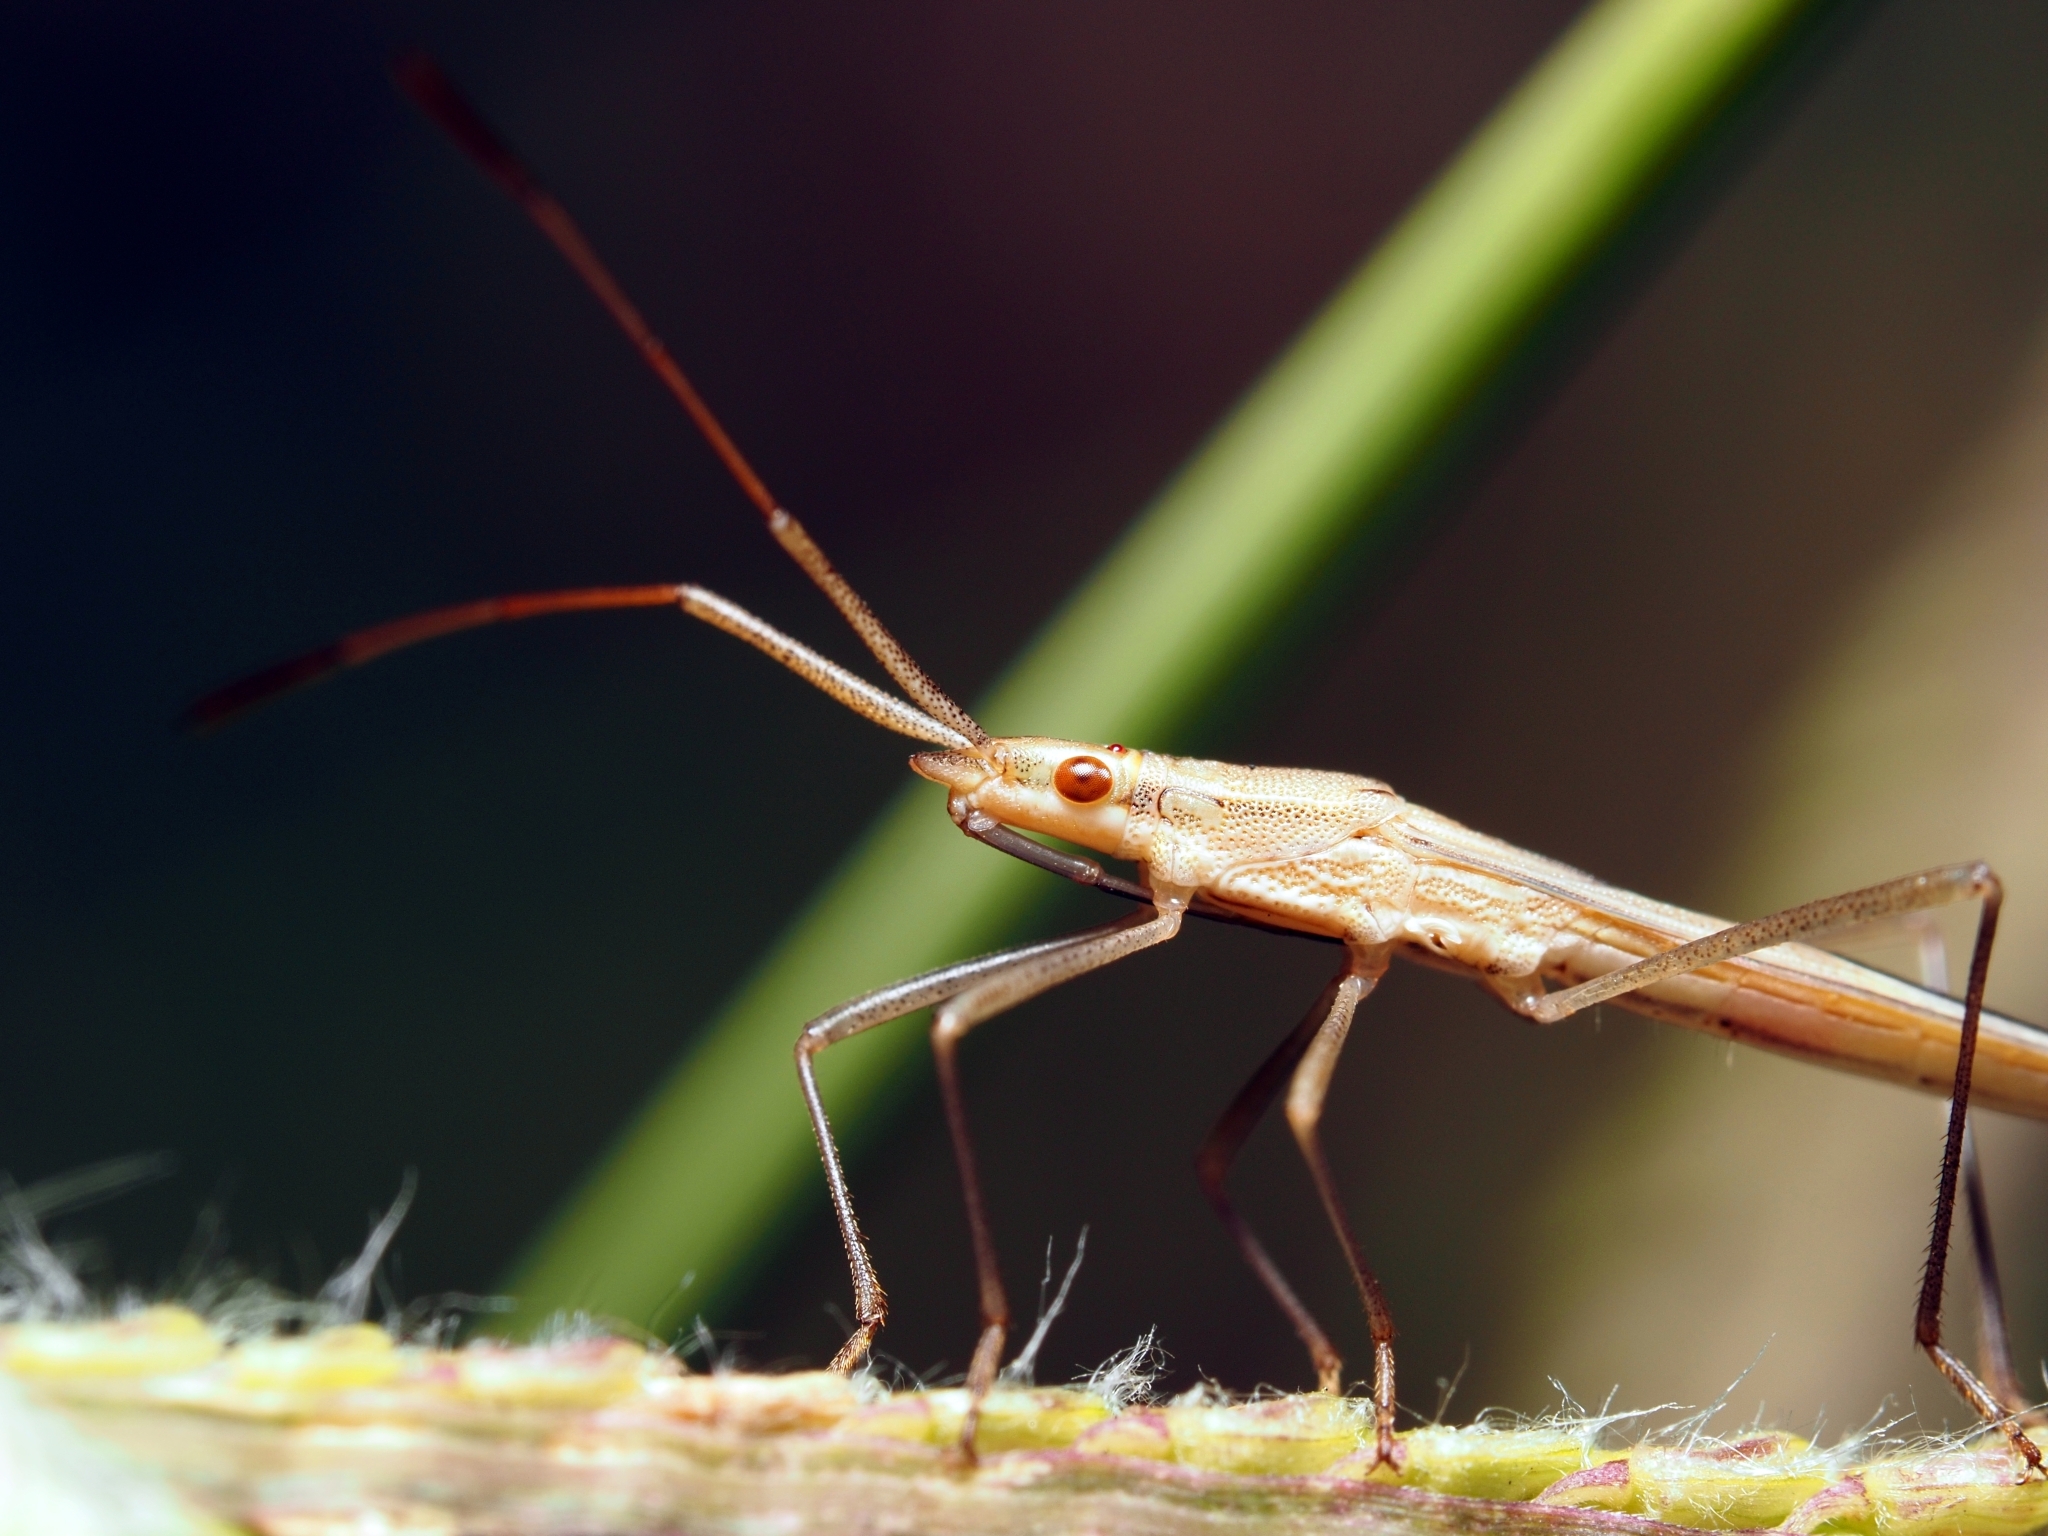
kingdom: Animalia
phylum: Arthropoda
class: Insecta
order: Hemiptera
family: Alydidae
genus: Mutusca
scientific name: Mutusca brevicornis
